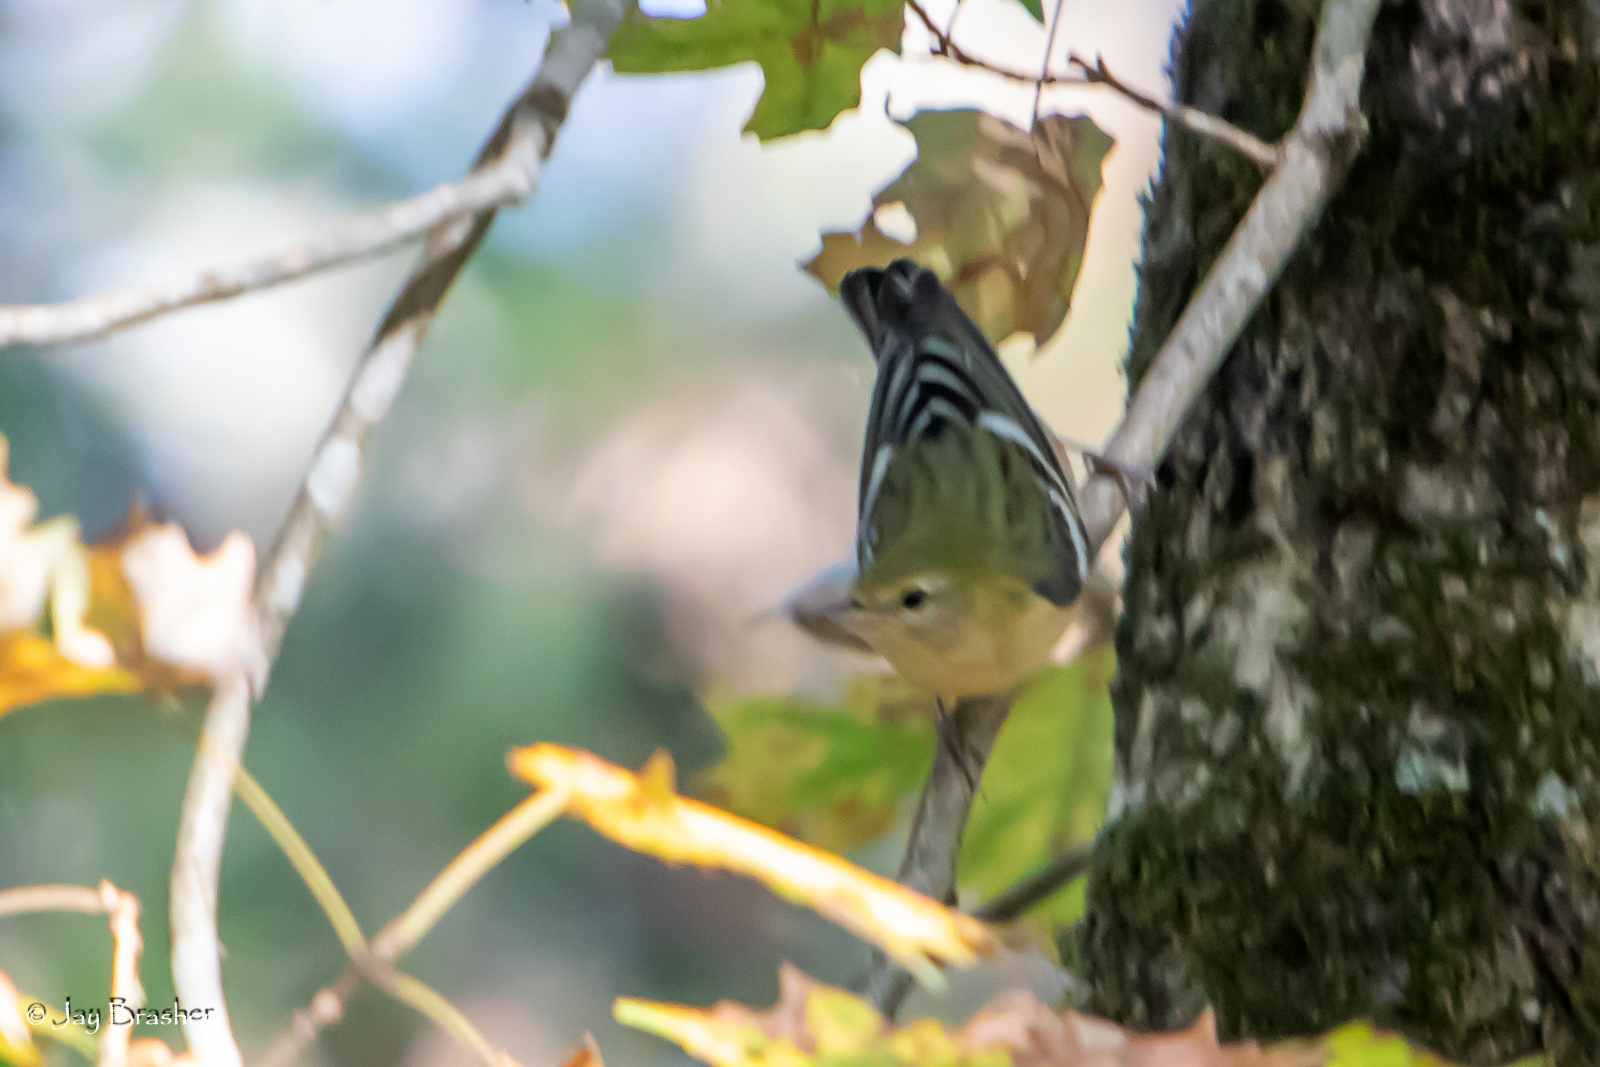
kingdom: Animalia
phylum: Chordata
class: Aves
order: Passeriformes
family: Parulidae
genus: Setophaga
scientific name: Setophaga castanea
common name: Bay-breasted warbler
